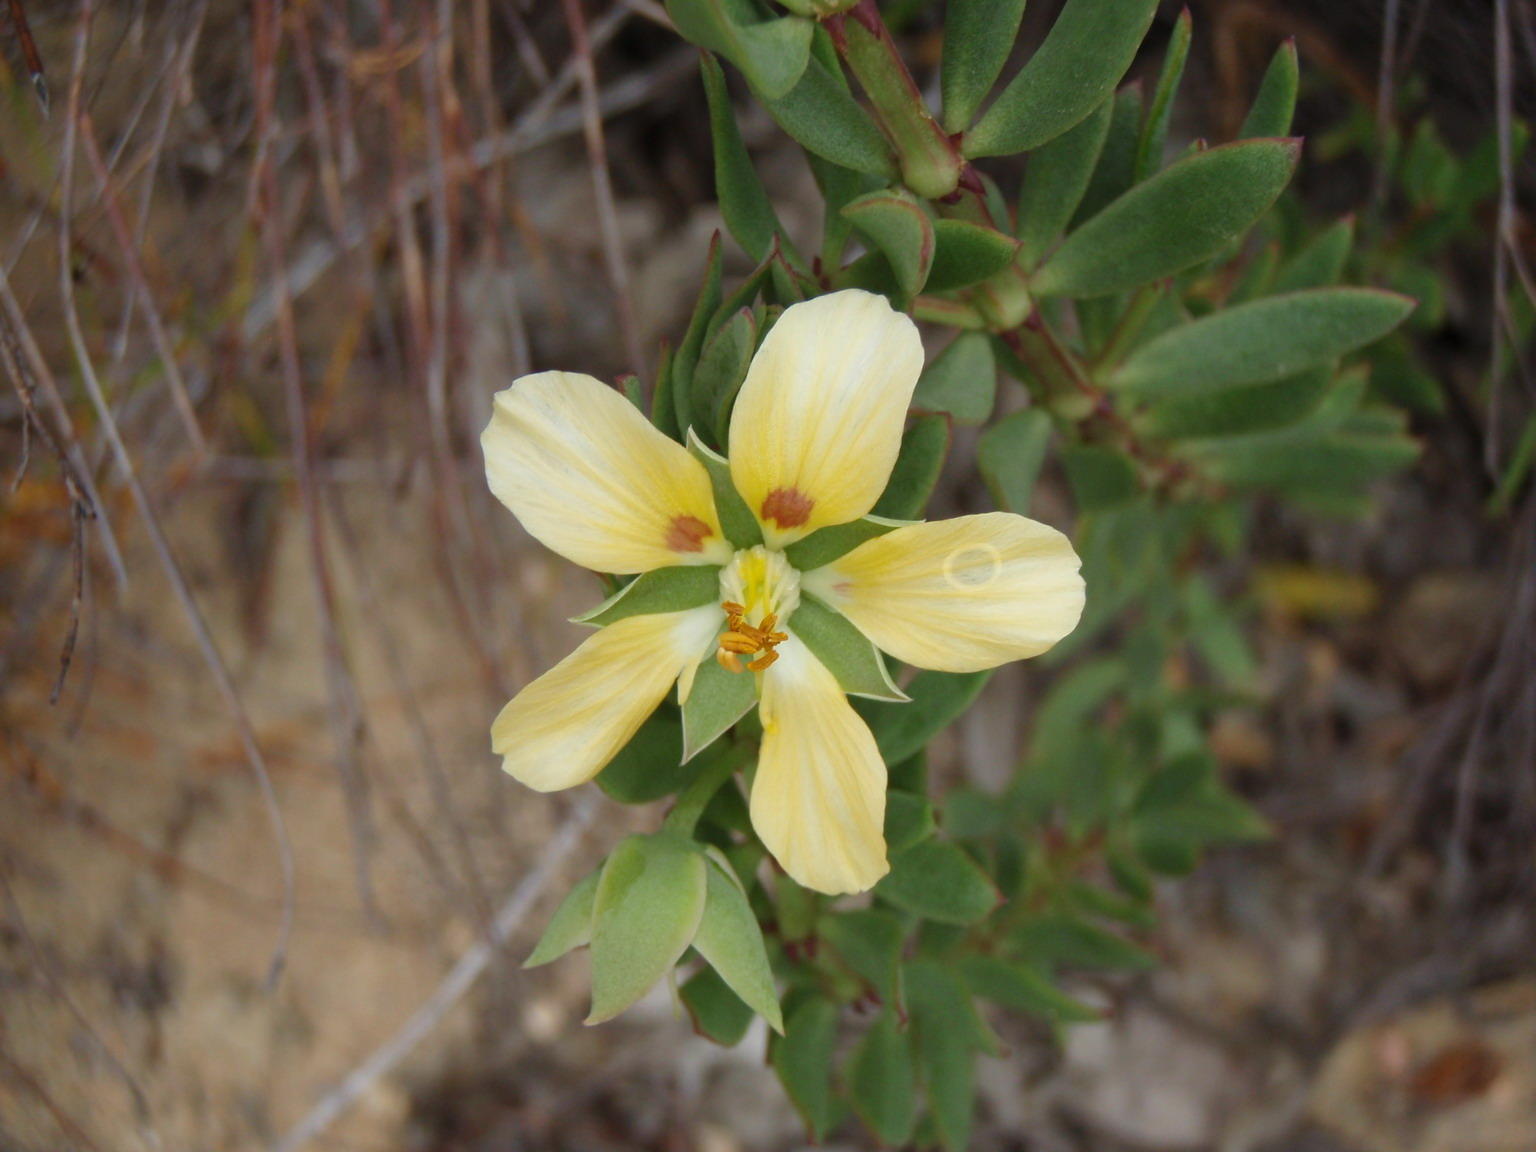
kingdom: Plantae
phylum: Tracheophyta
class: Magnoliopsida
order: Zygophyllales
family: Zygophyllaceae
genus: Roepera
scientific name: Roepera fulva
